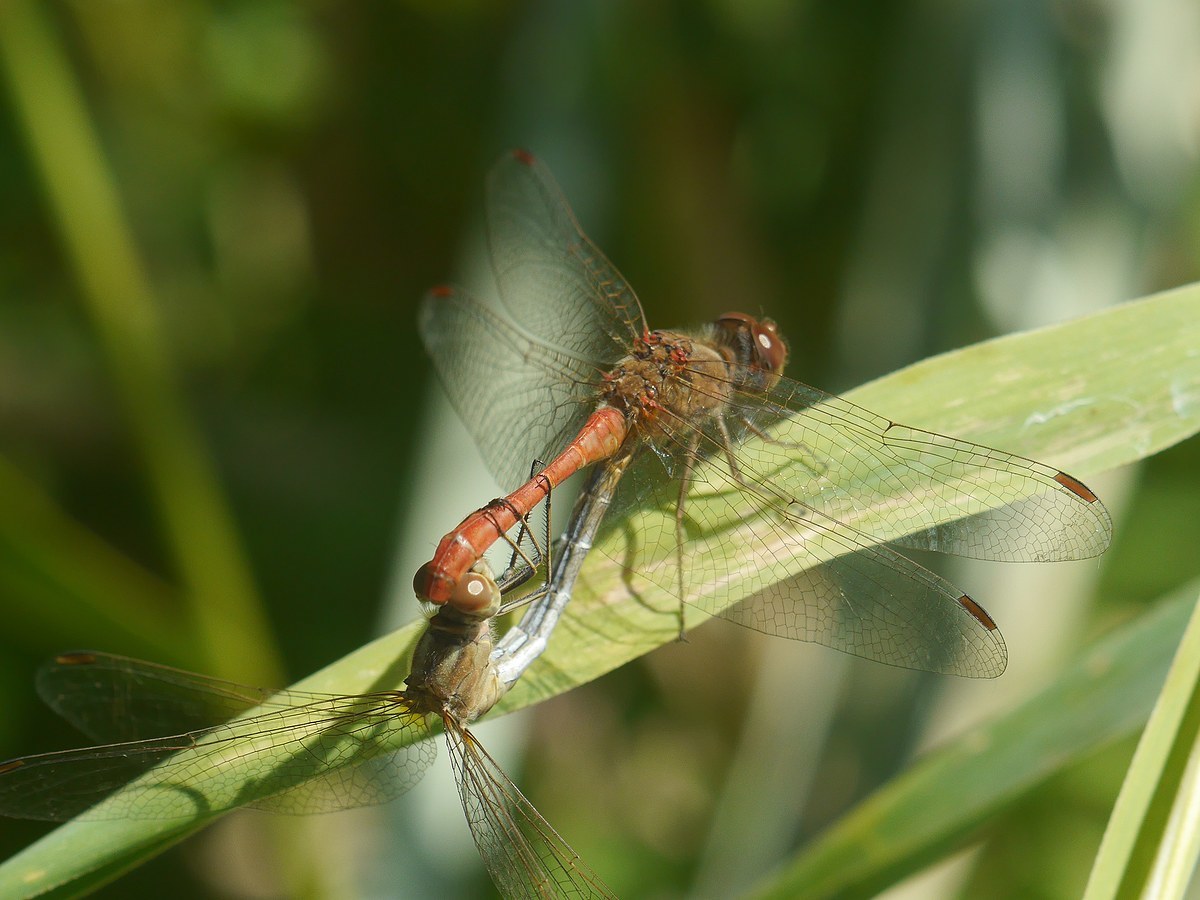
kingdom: Animalia
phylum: Arthropoda
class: Insecta
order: Odonata
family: Libellulidae
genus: Sympetrum
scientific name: Sympetrum meridionale
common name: Southern darter
